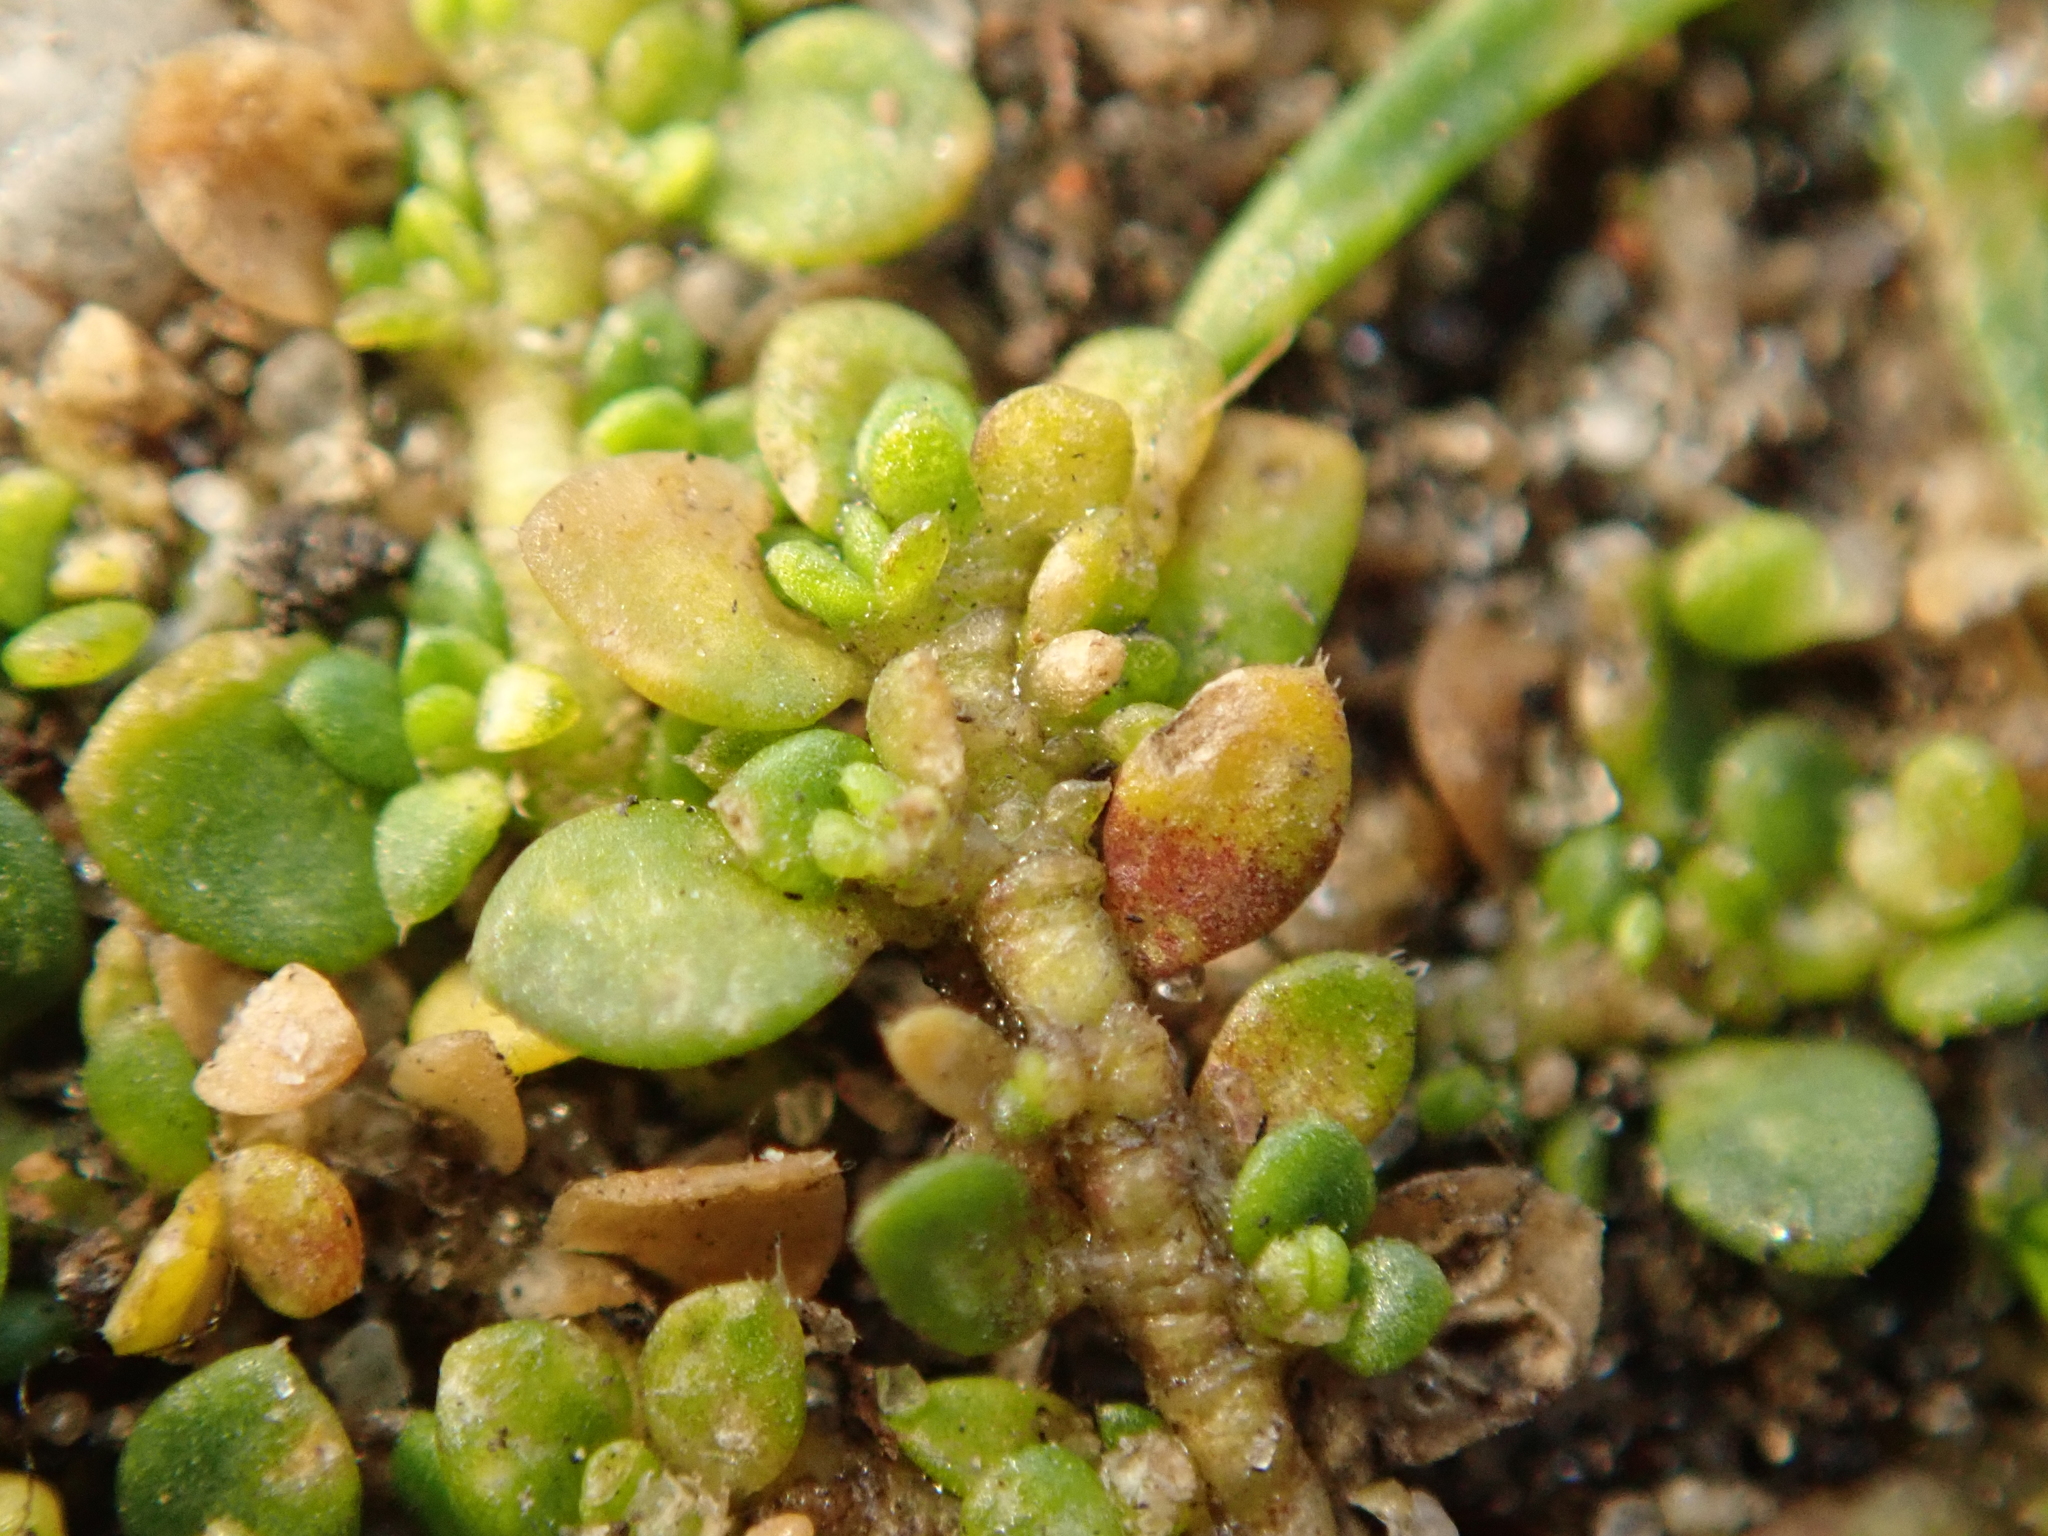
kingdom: Plantae
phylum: Tracheophyta
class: Magnoliopsida
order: Caryophyllales
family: Caryophyllaceae
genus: Herniaria
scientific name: Herniaria glabra
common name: Smooth rupturewort
